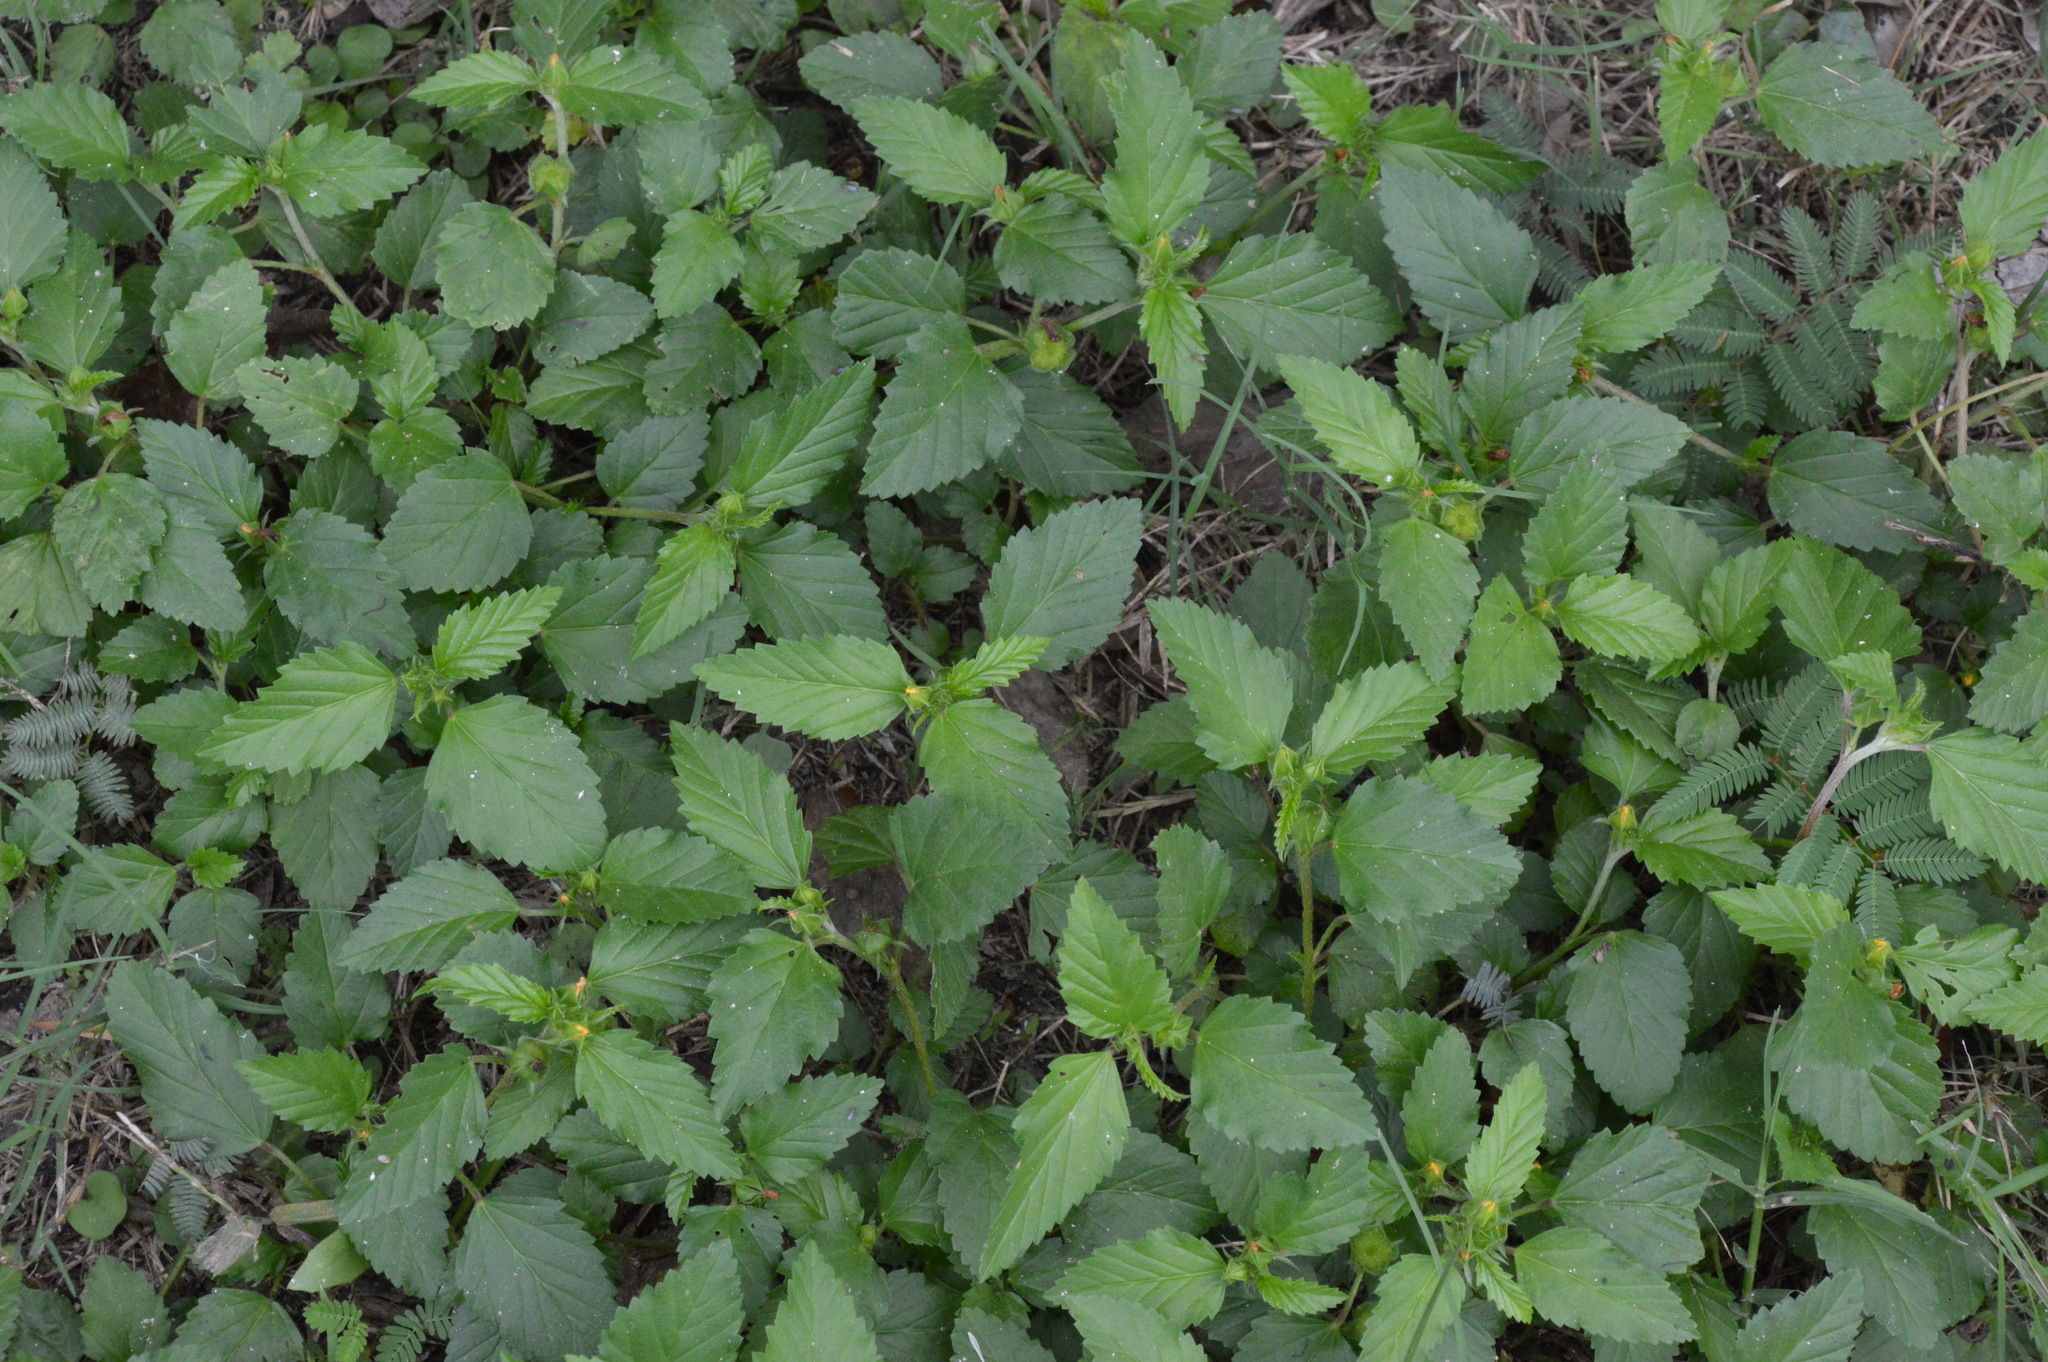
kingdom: Plantae
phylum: Tracheophyta
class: Magnoliopsida
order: Malvales
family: Malvaceae
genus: Malvastrum
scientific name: Malvastrum coromandelianum
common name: Threelobe false mallow
